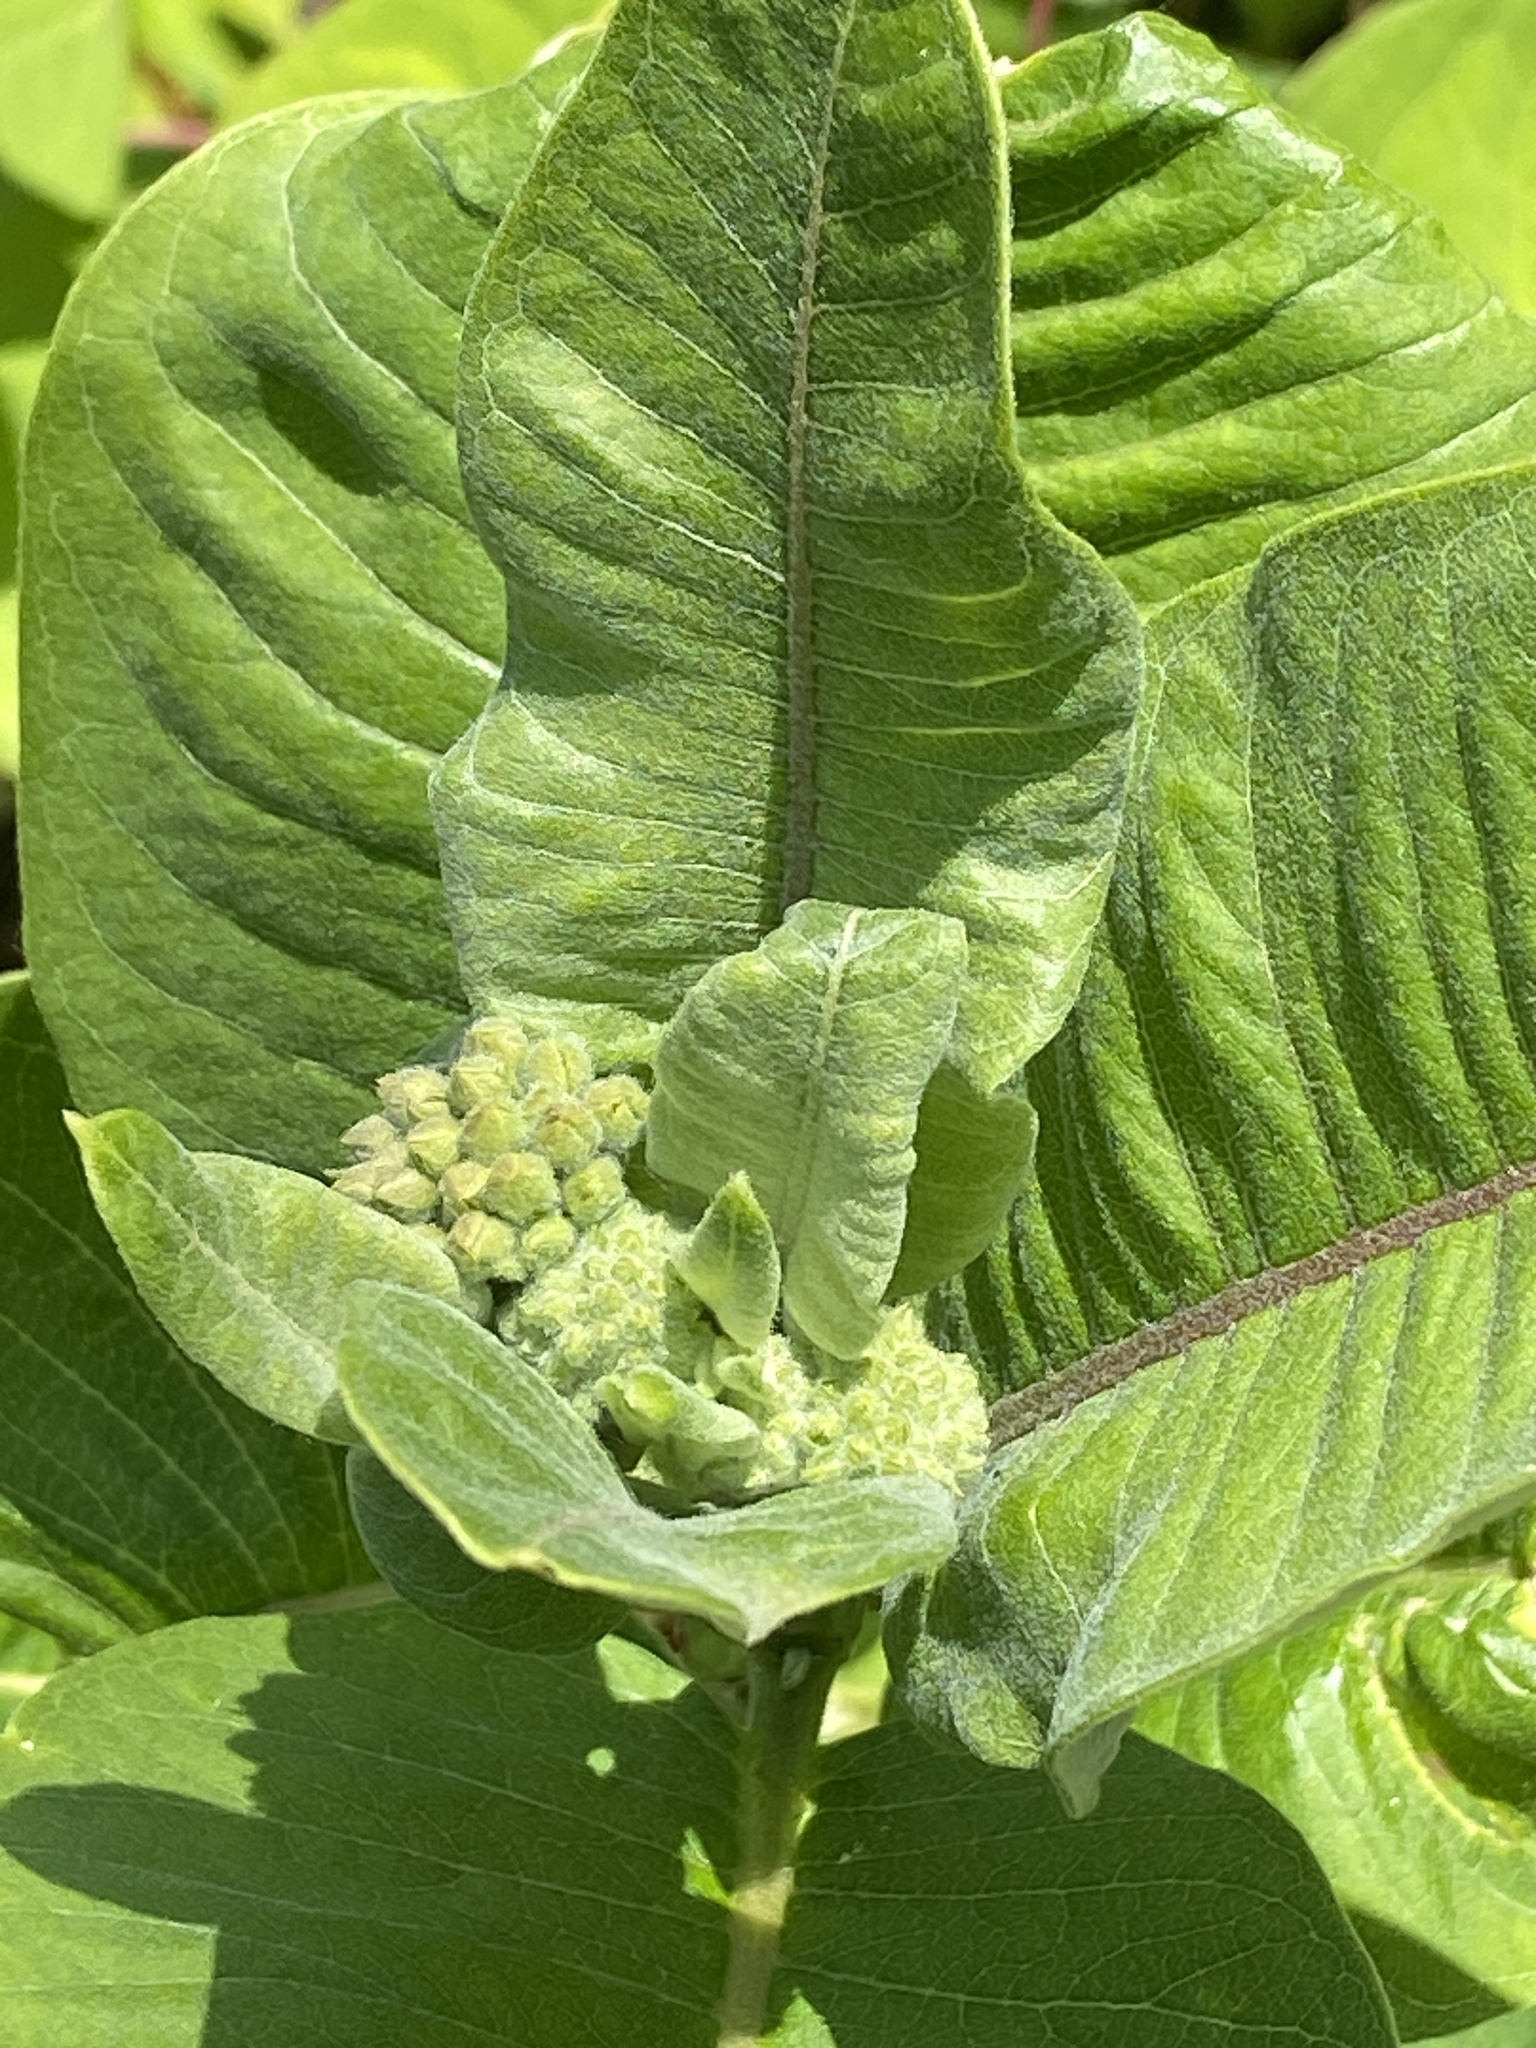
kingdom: Plantae
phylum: Tracheophyta
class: Magnoliopsida
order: Gentianales
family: Apocynaceae
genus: Asclepias
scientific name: Asclepias syriaca
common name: Common milkweed
